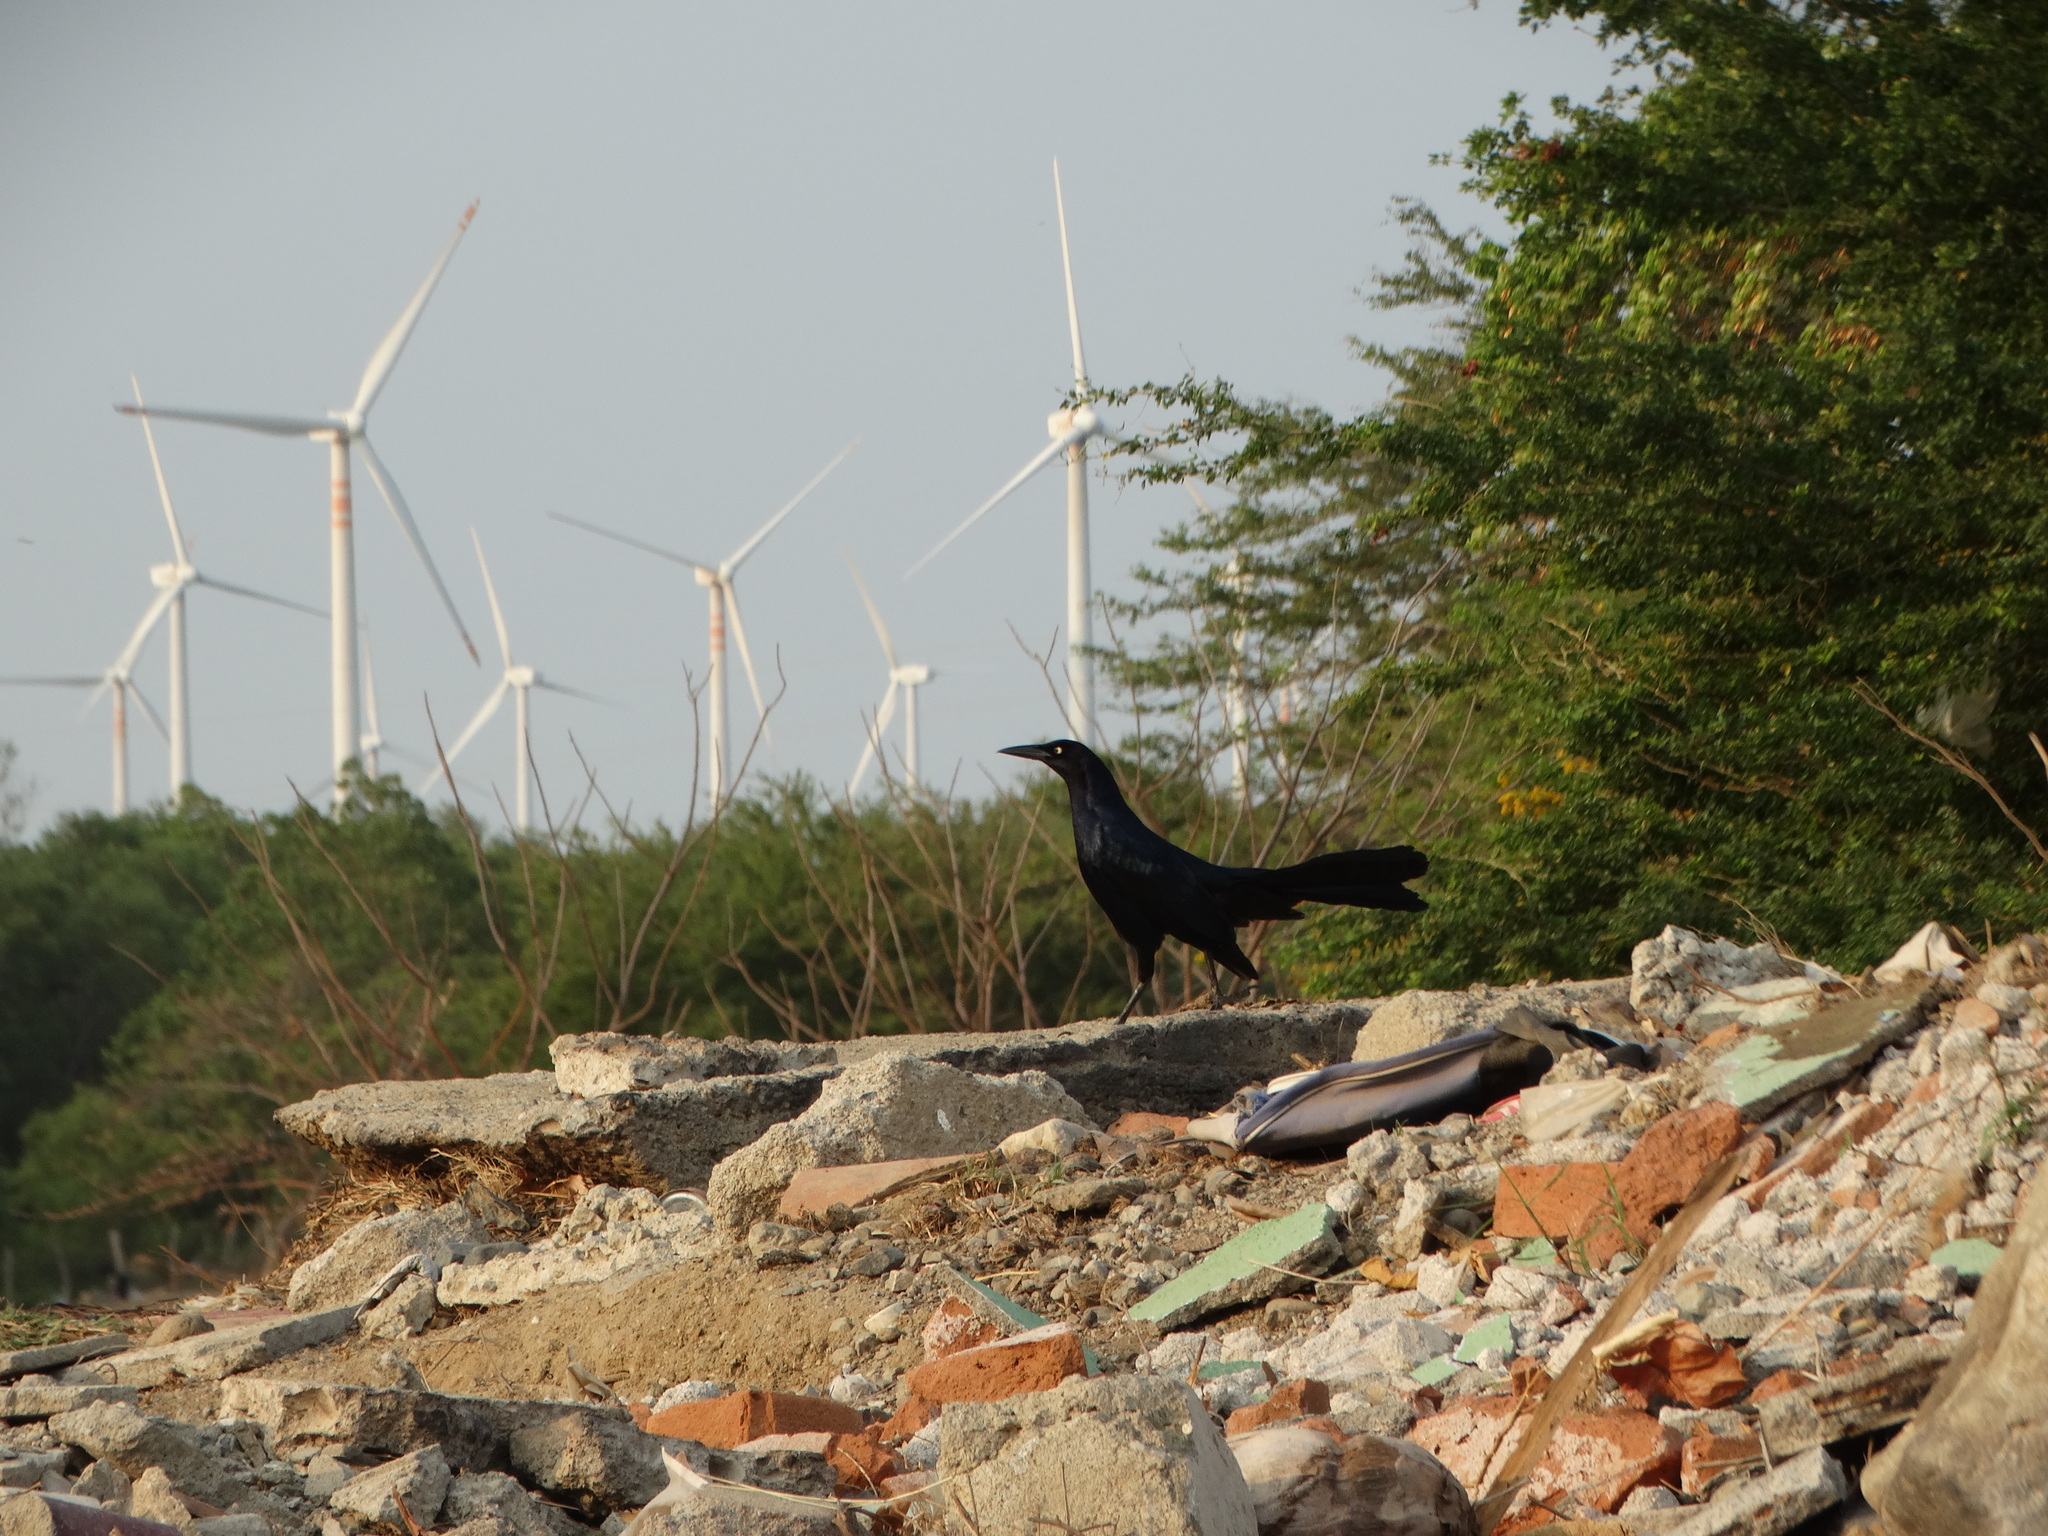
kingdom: Animalia
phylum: Chordata
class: Aves
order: Passeriformes
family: Icteridae
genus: Quiscalus
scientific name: Quiscalus mexicanus
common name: Great-tailed grackle
